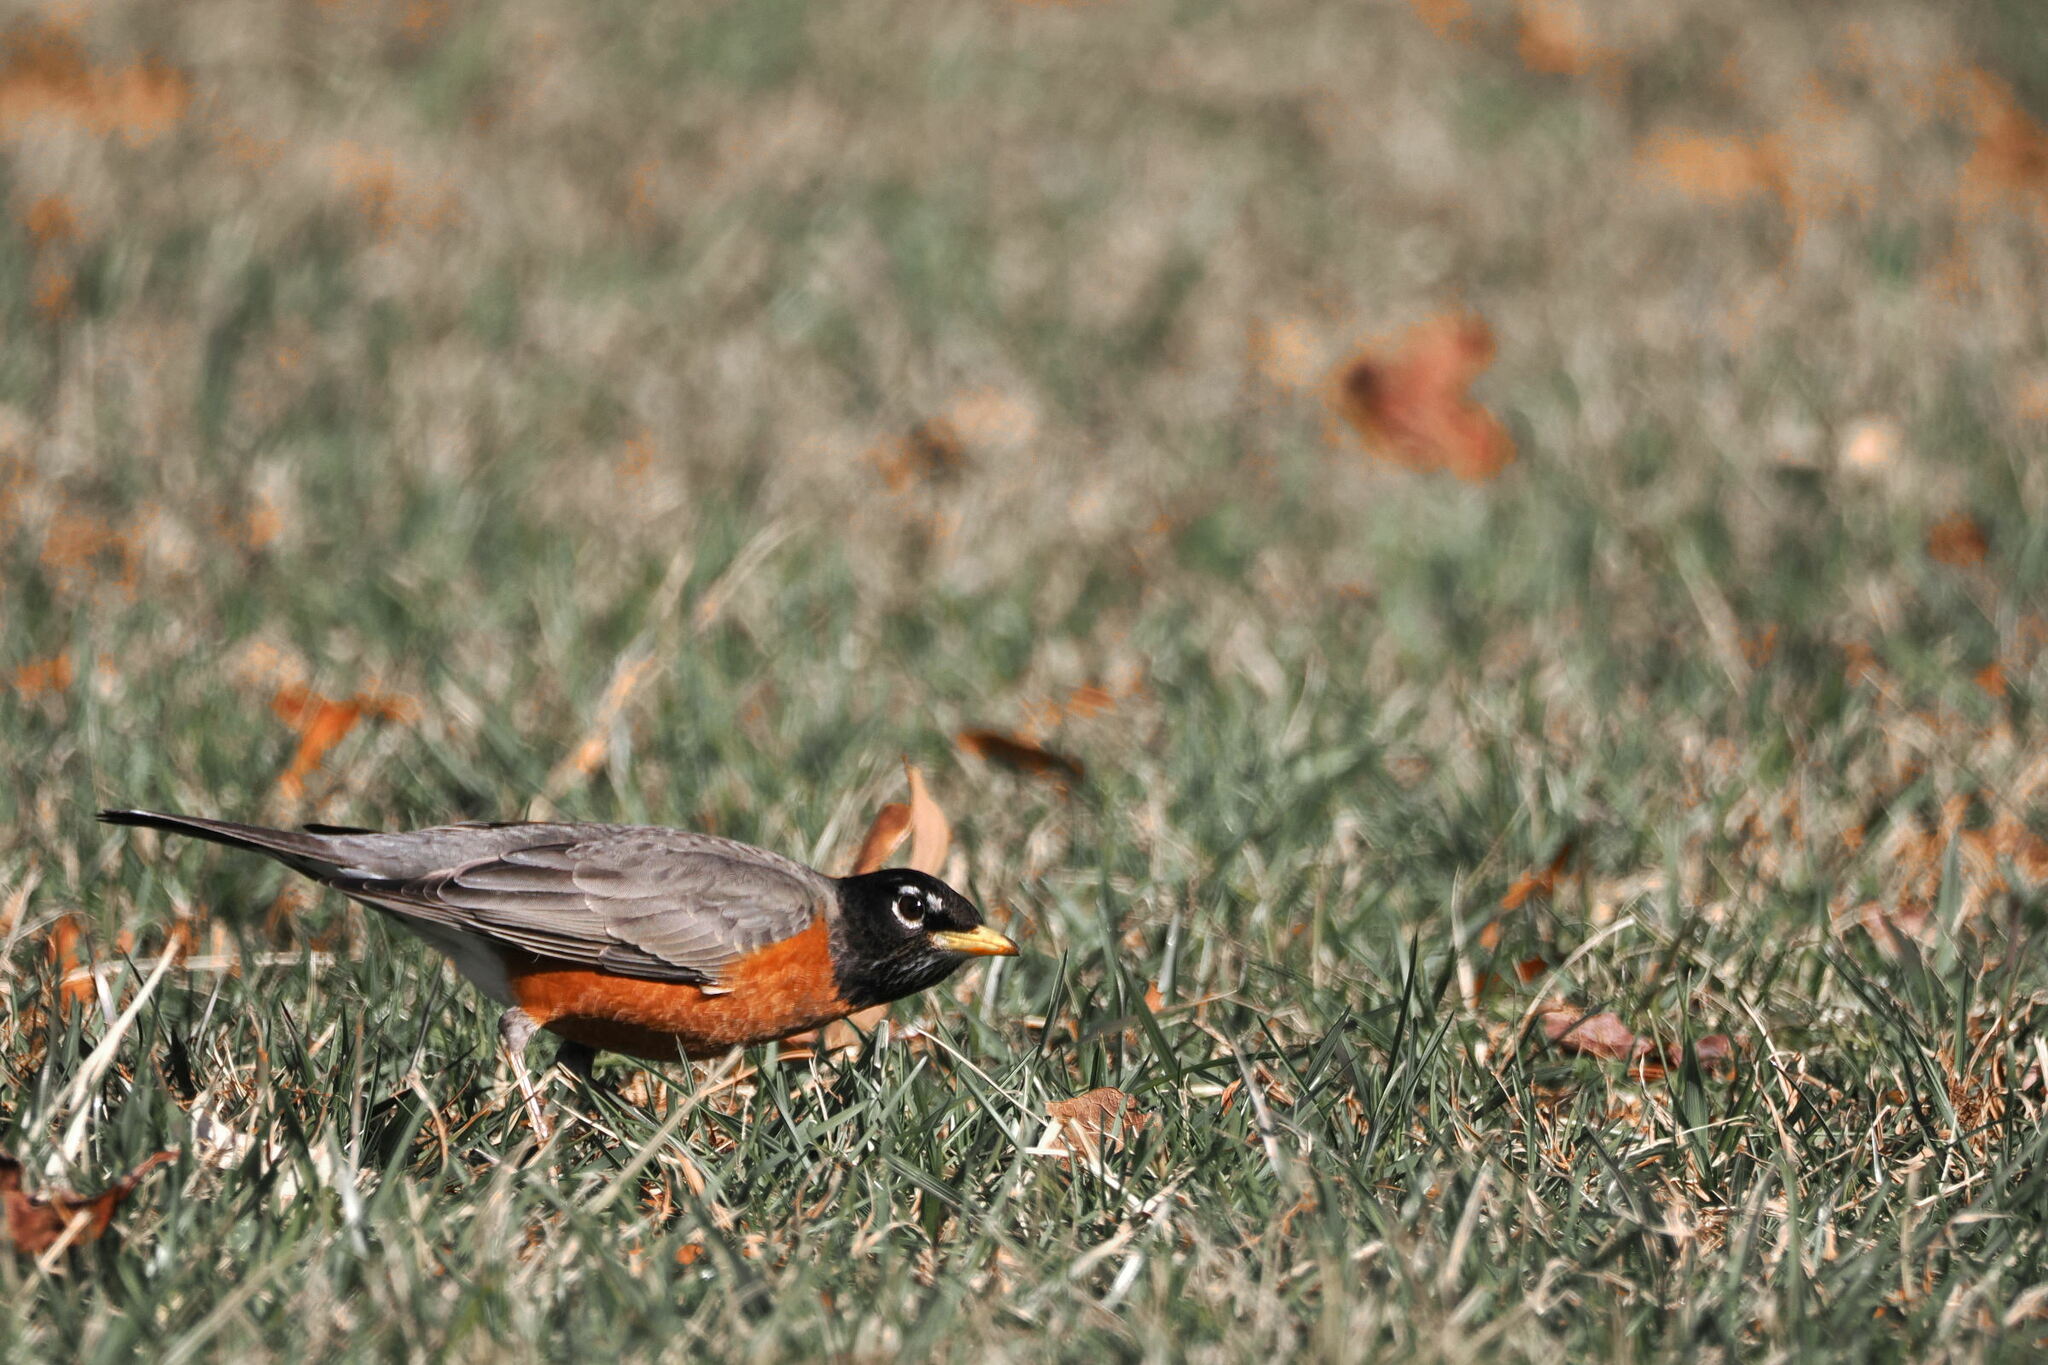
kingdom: Animalia
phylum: Chordata
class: Aves
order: Passeriformes
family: Turdidae
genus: Turdus
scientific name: Turdus migratorius
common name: American robin
